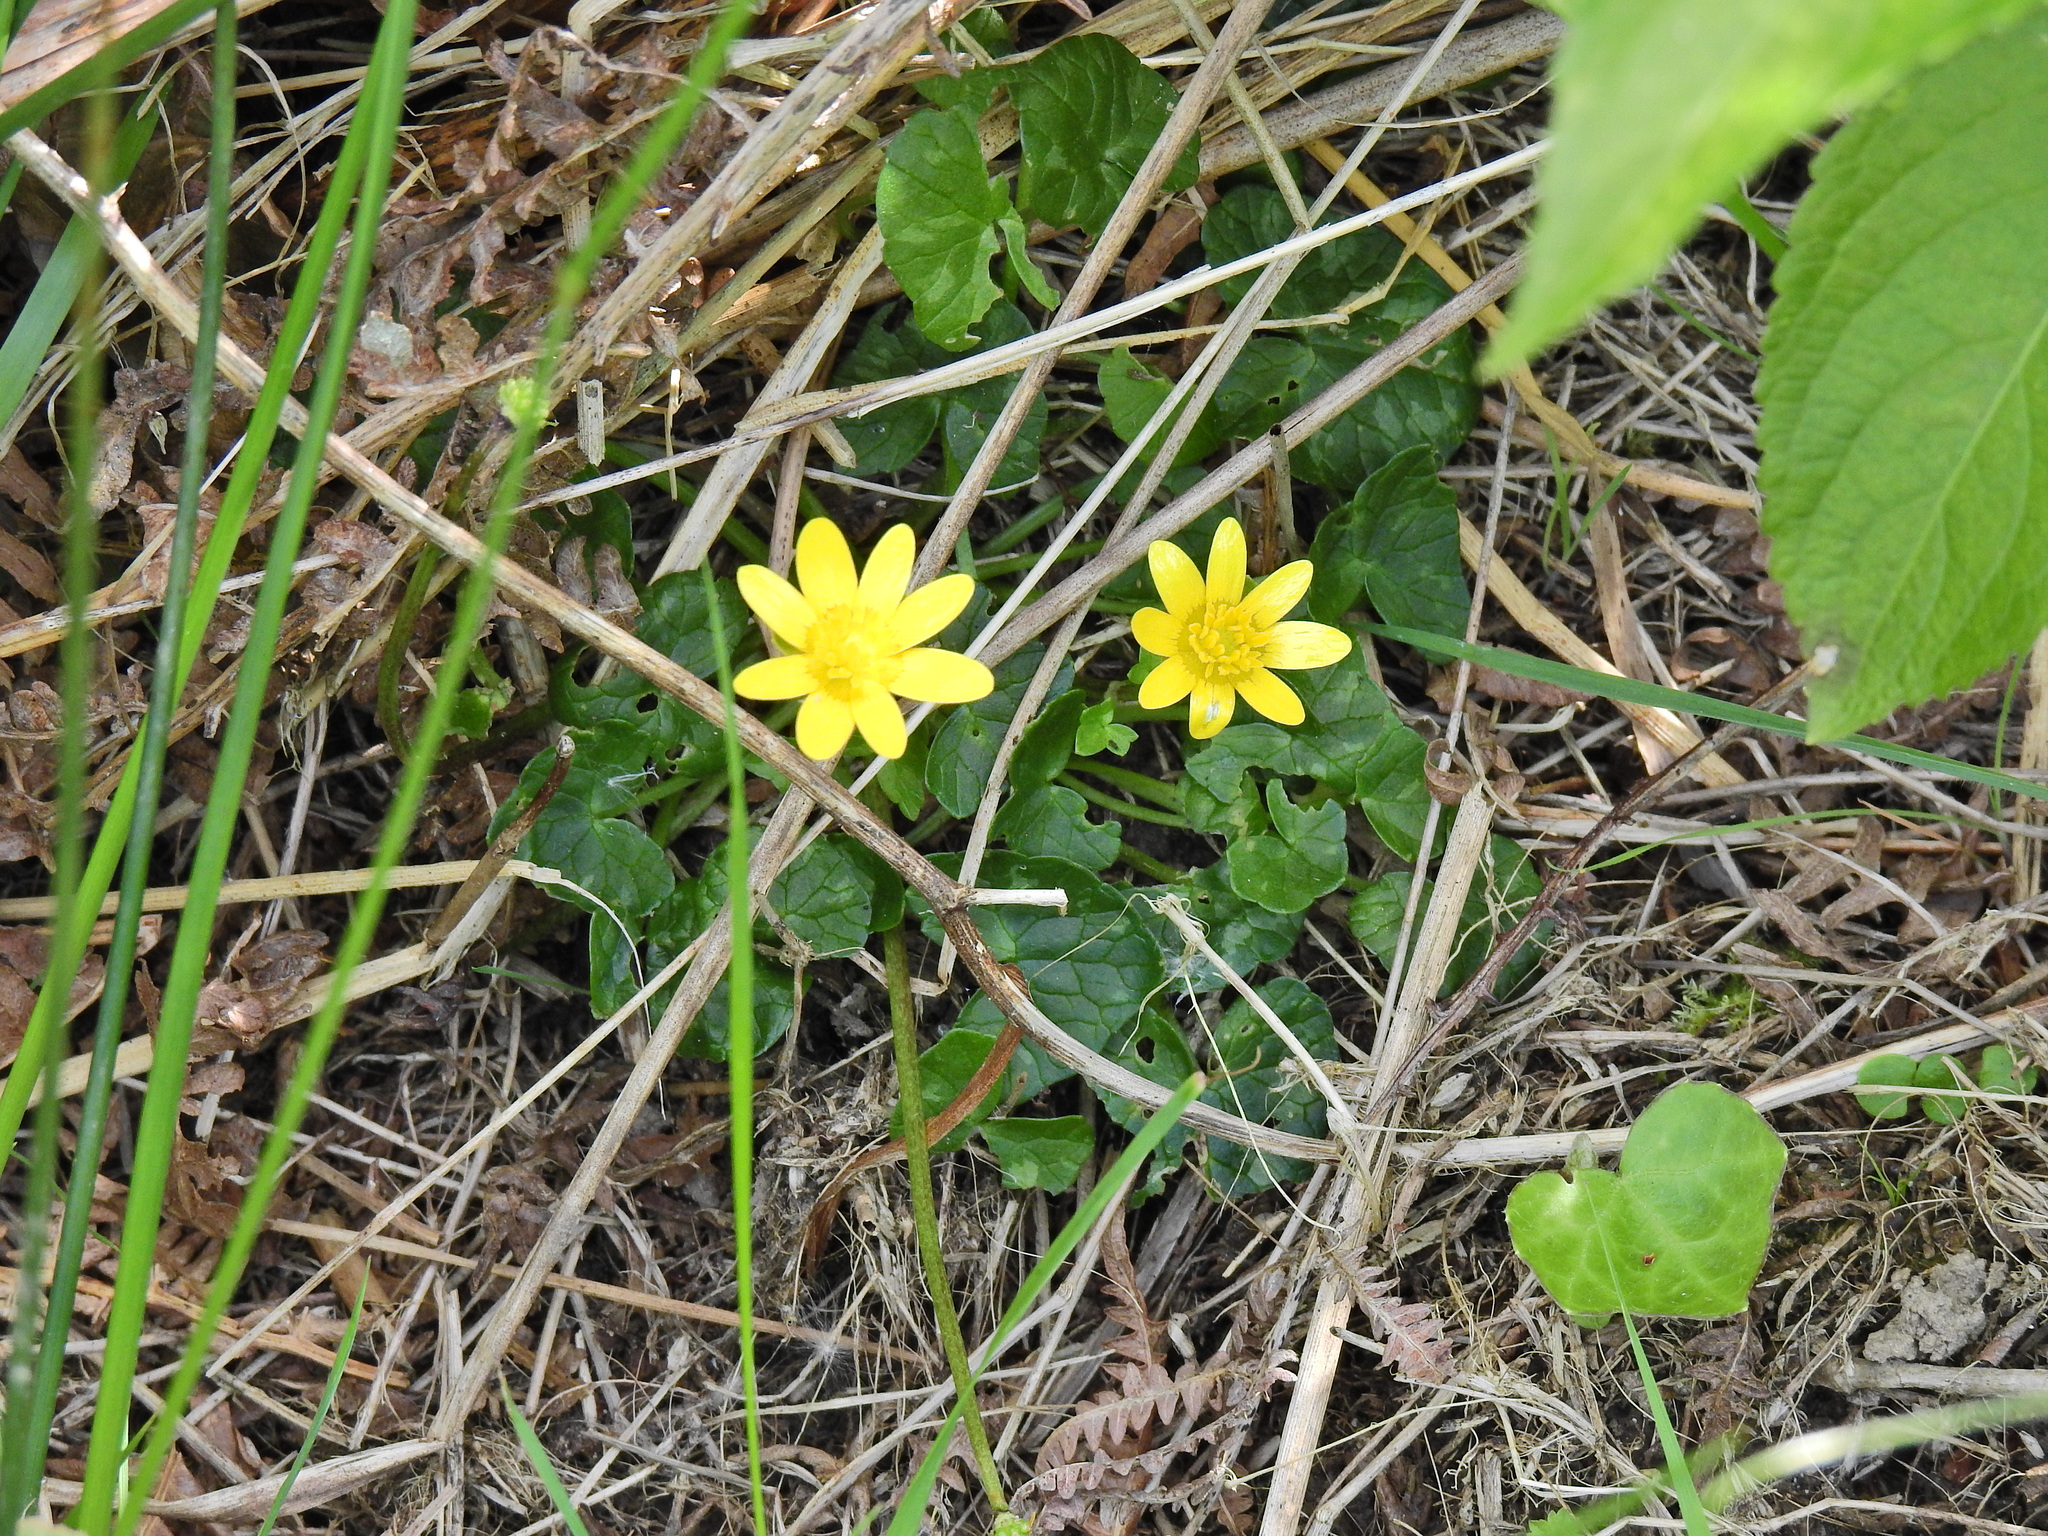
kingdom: Plantae
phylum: Tracheophyta
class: Magnoliopsida
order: Ranunculales
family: Ranunculaceae
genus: Ficaria
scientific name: Ficaria verna
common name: Lesser celandine
